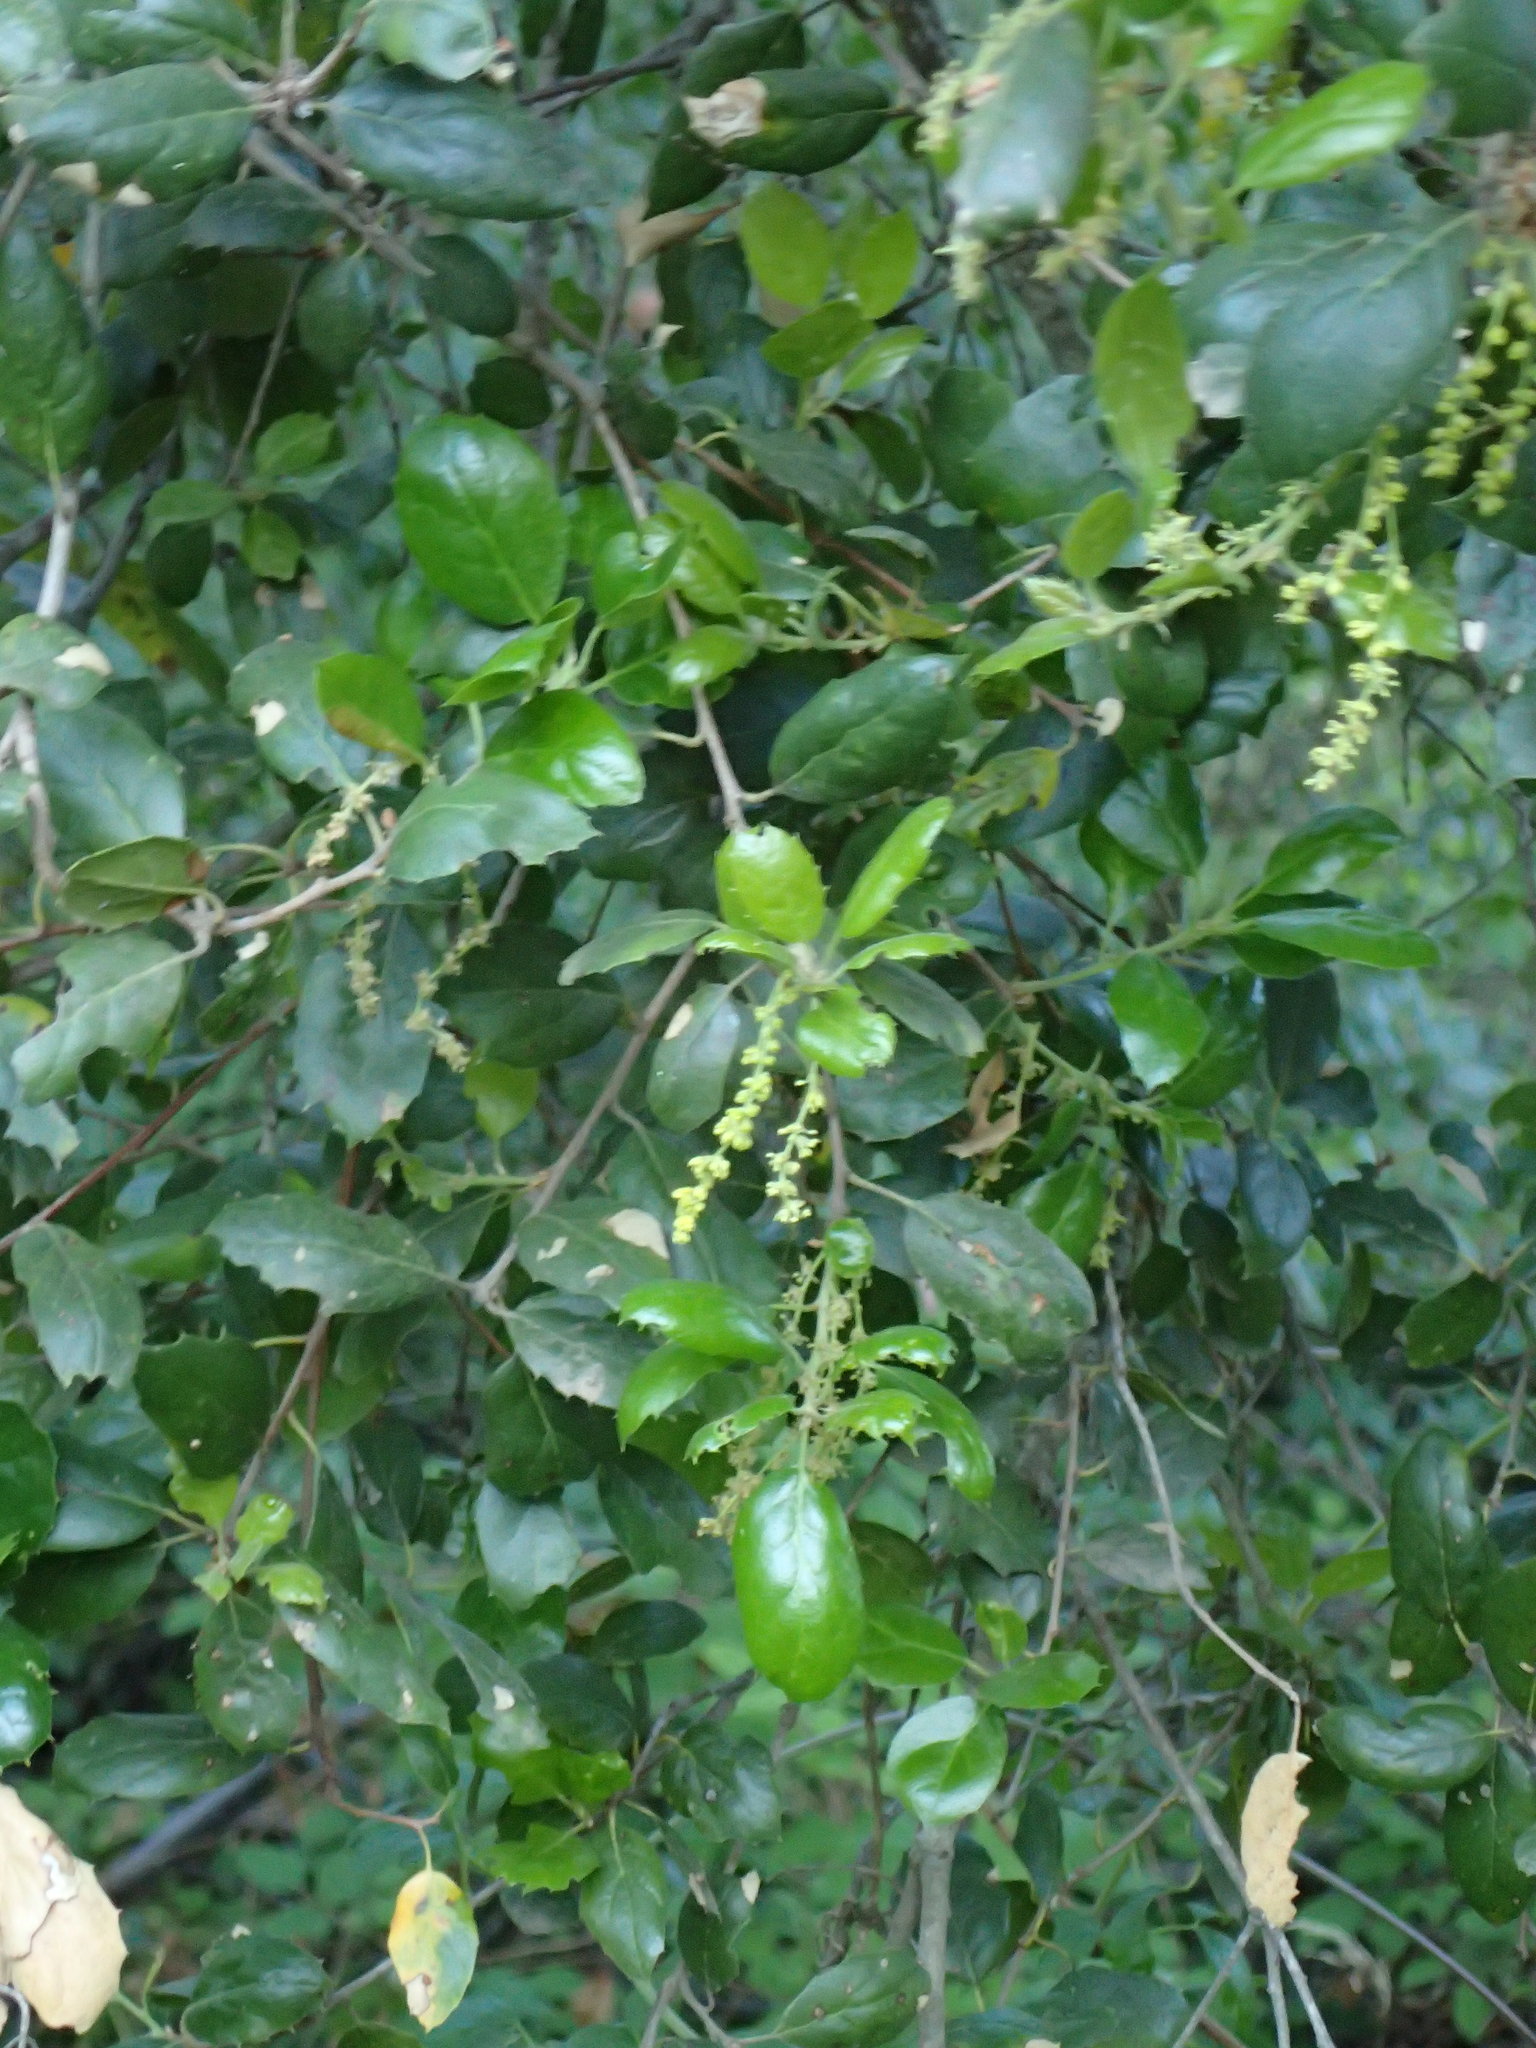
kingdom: Plantae
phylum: Tracheophyta
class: Magnoliopsida
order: Fagales
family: Fagaceae
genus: Quercus
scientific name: Quercus agrifolia
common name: California live oak
